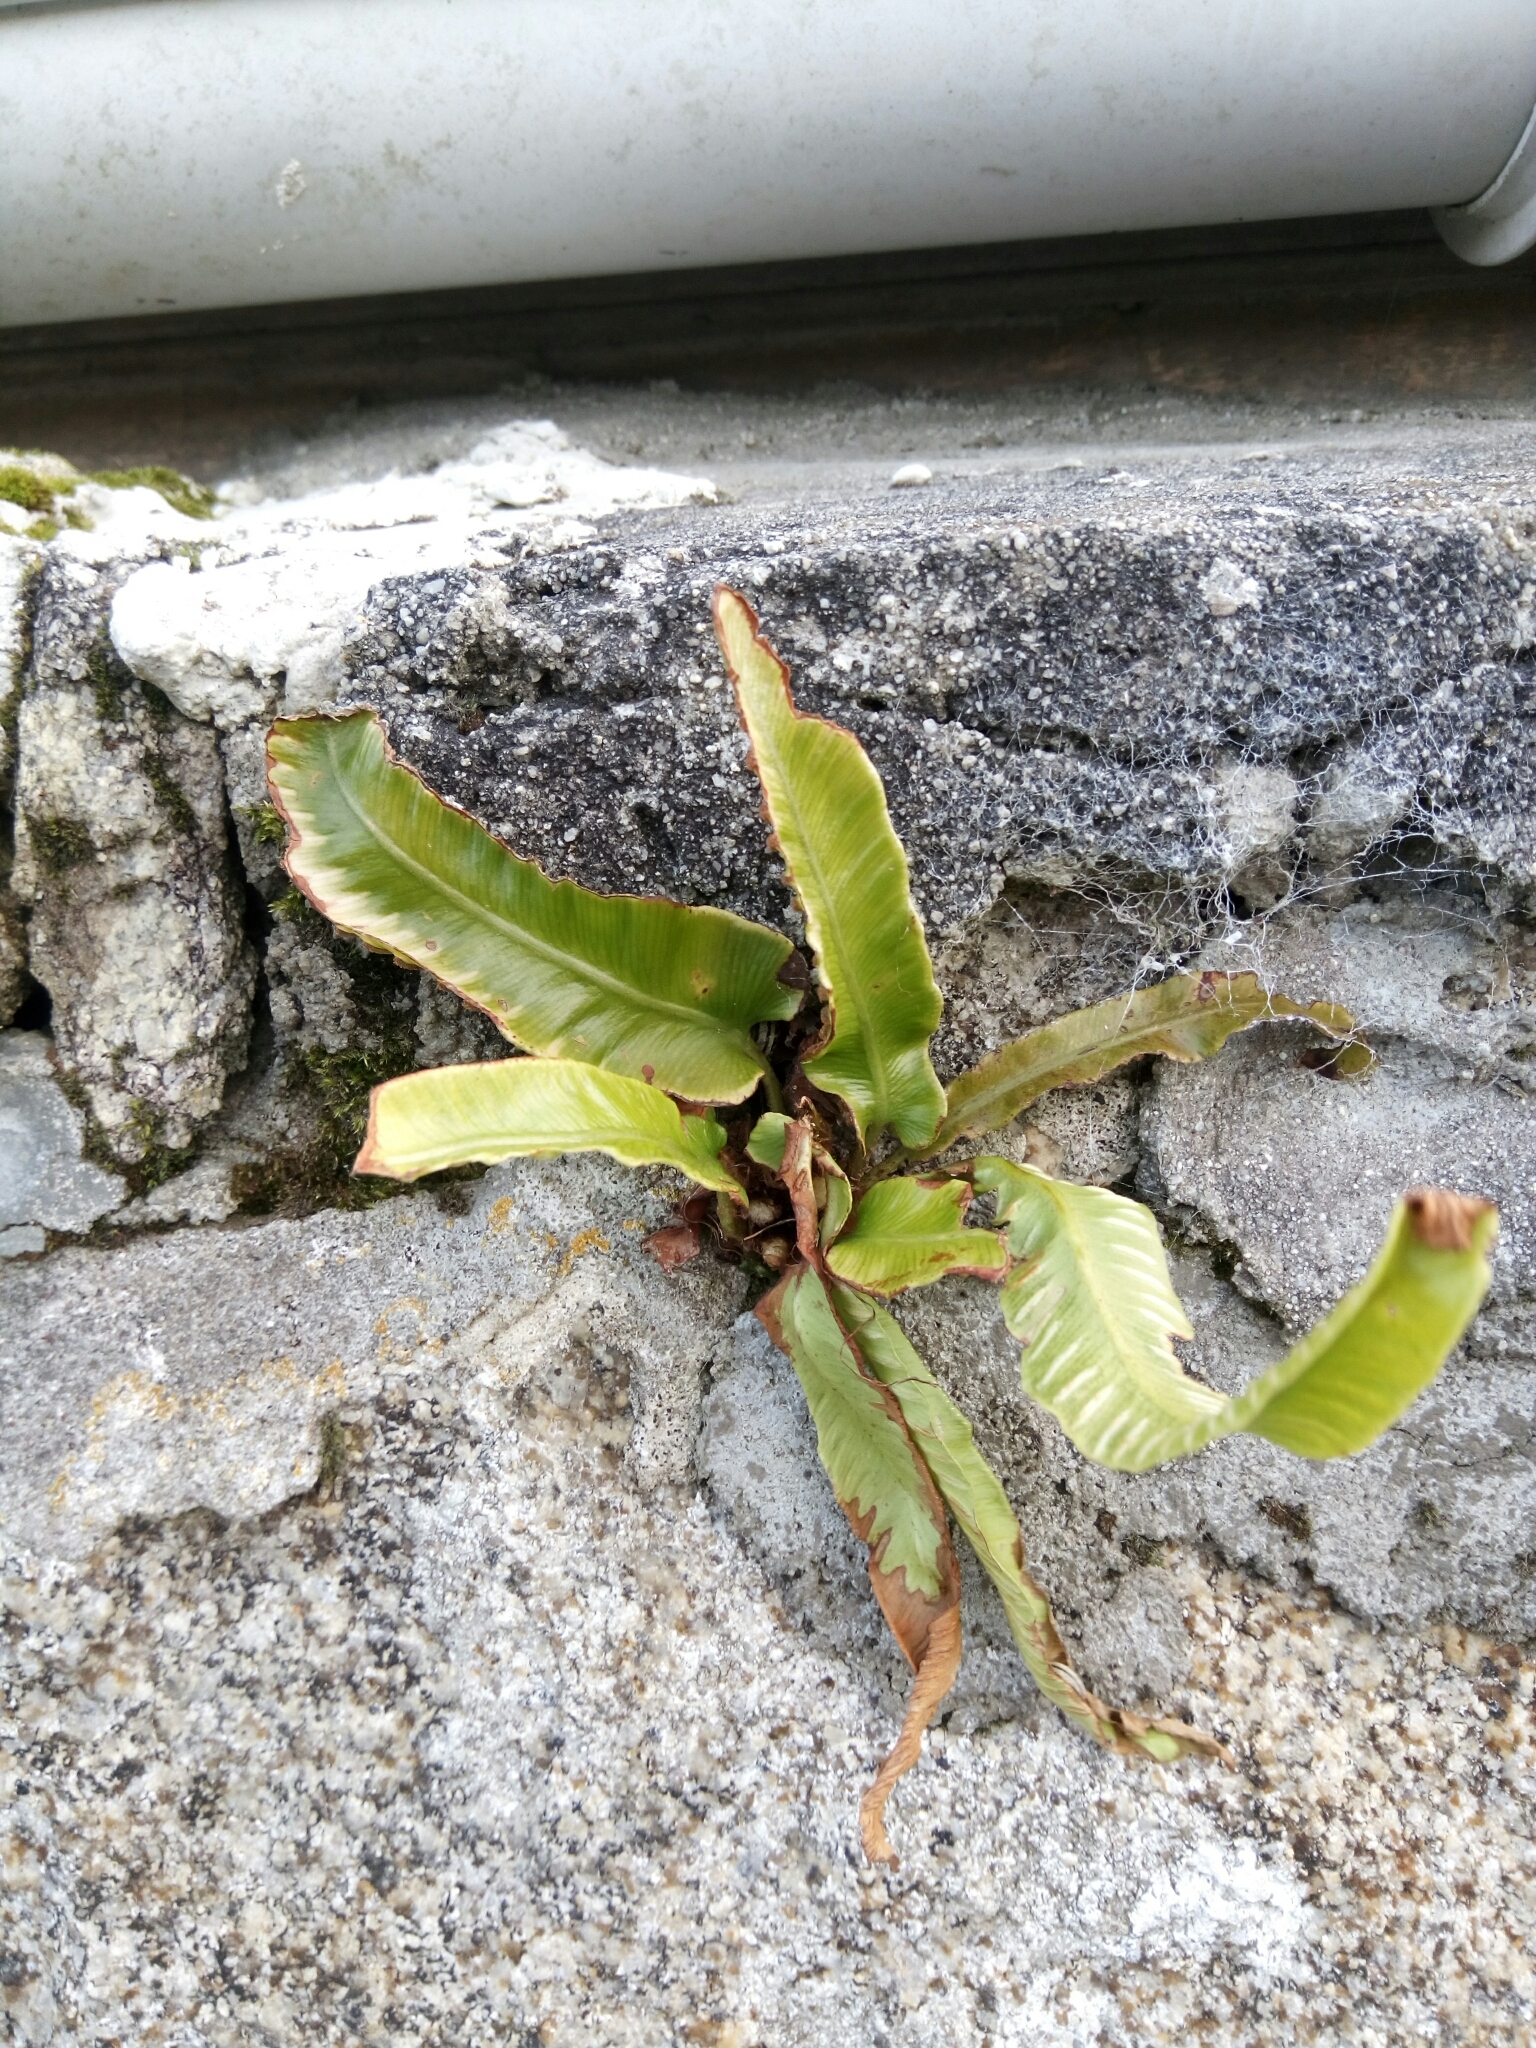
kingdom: Plantae
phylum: Tracheophyta
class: Polypodiopsida
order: Polypodiales
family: Aspleniaceae
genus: Asplenium
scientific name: Asplenium scolopendrium
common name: Hart's-tongue fern
